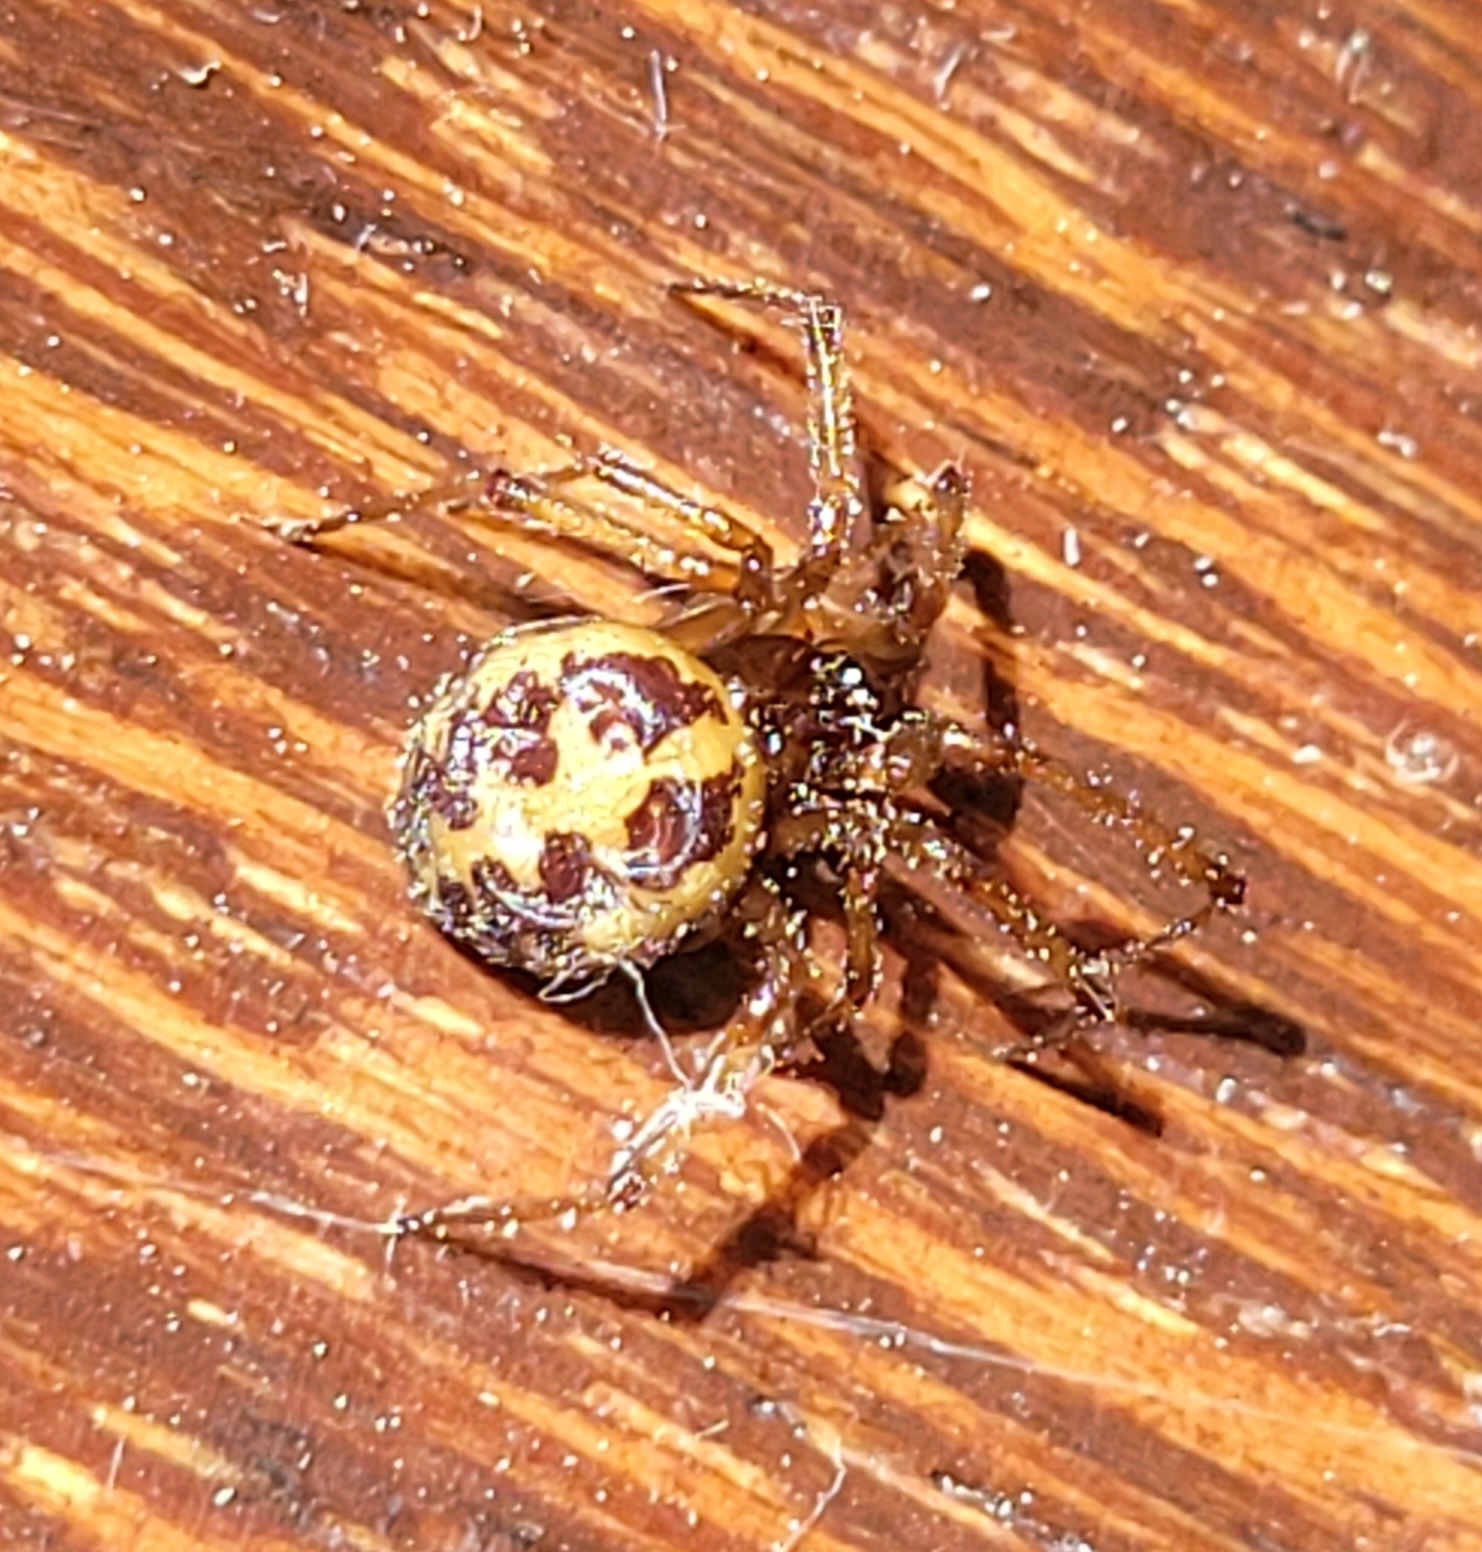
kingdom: Animalia
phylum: Arthropoda
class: Arachnida
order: Araneae
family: Theridiidae
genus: Steatoda
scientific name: Steatoda triangulosa
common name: Triangulate bud spider
